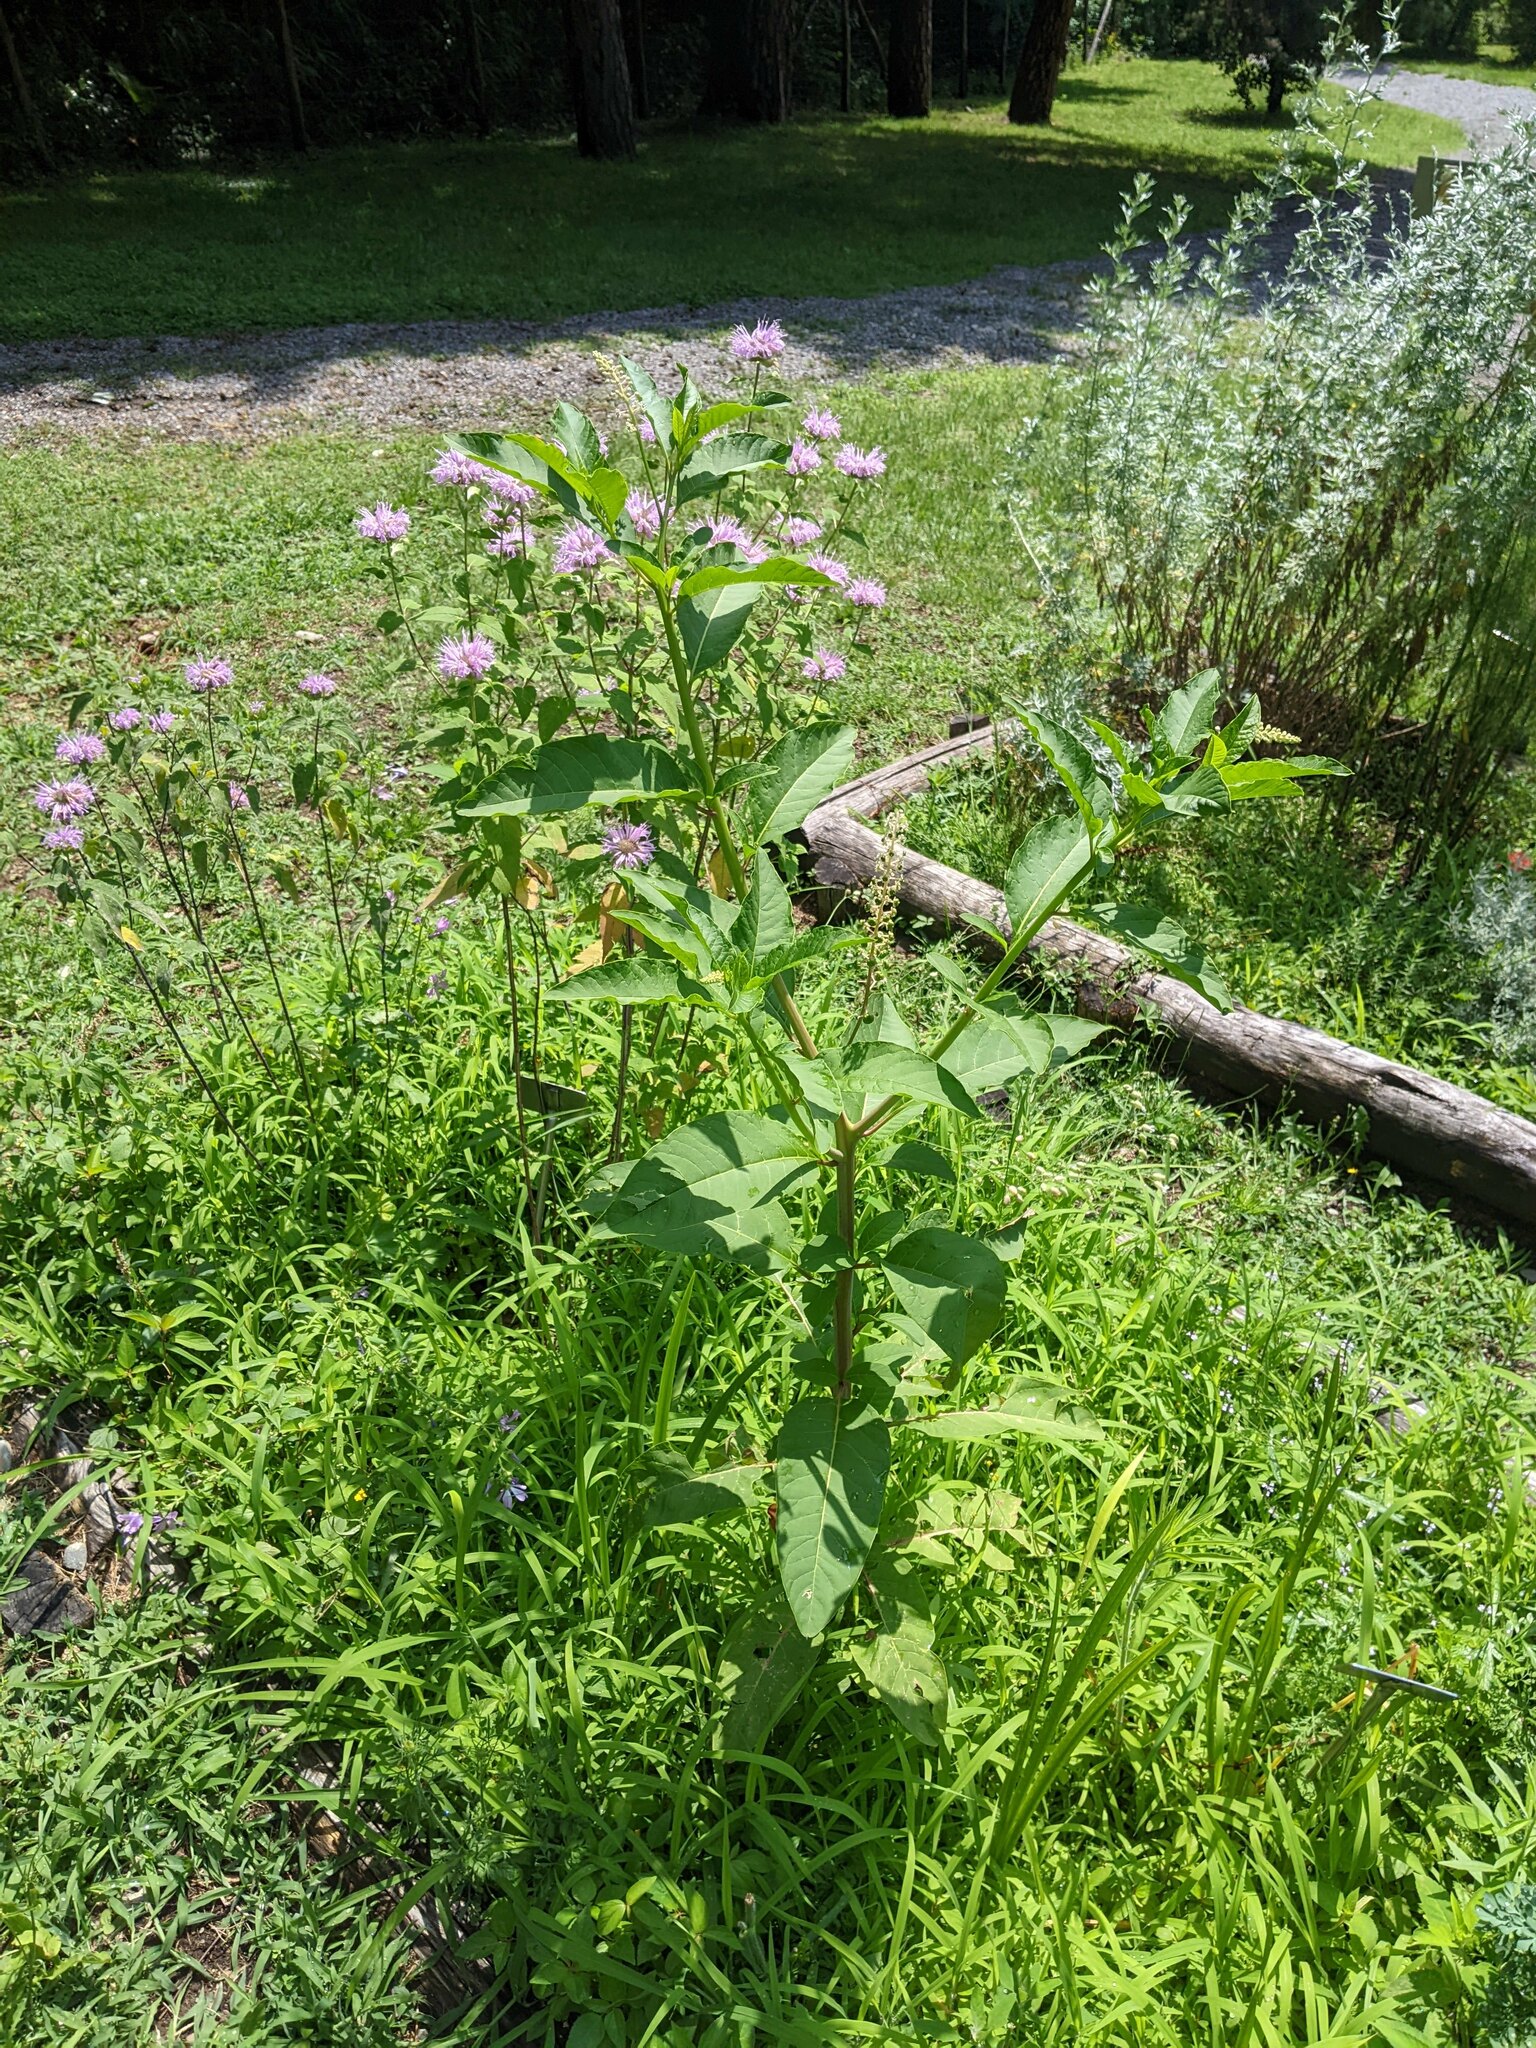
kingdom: Plantae
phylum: Tracheophyta
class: Magnoliopsida
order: Caryophyllales
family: Phytolaccaceae
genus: Phytolacca
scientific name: Phytolacca americana
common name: American pokeweed
